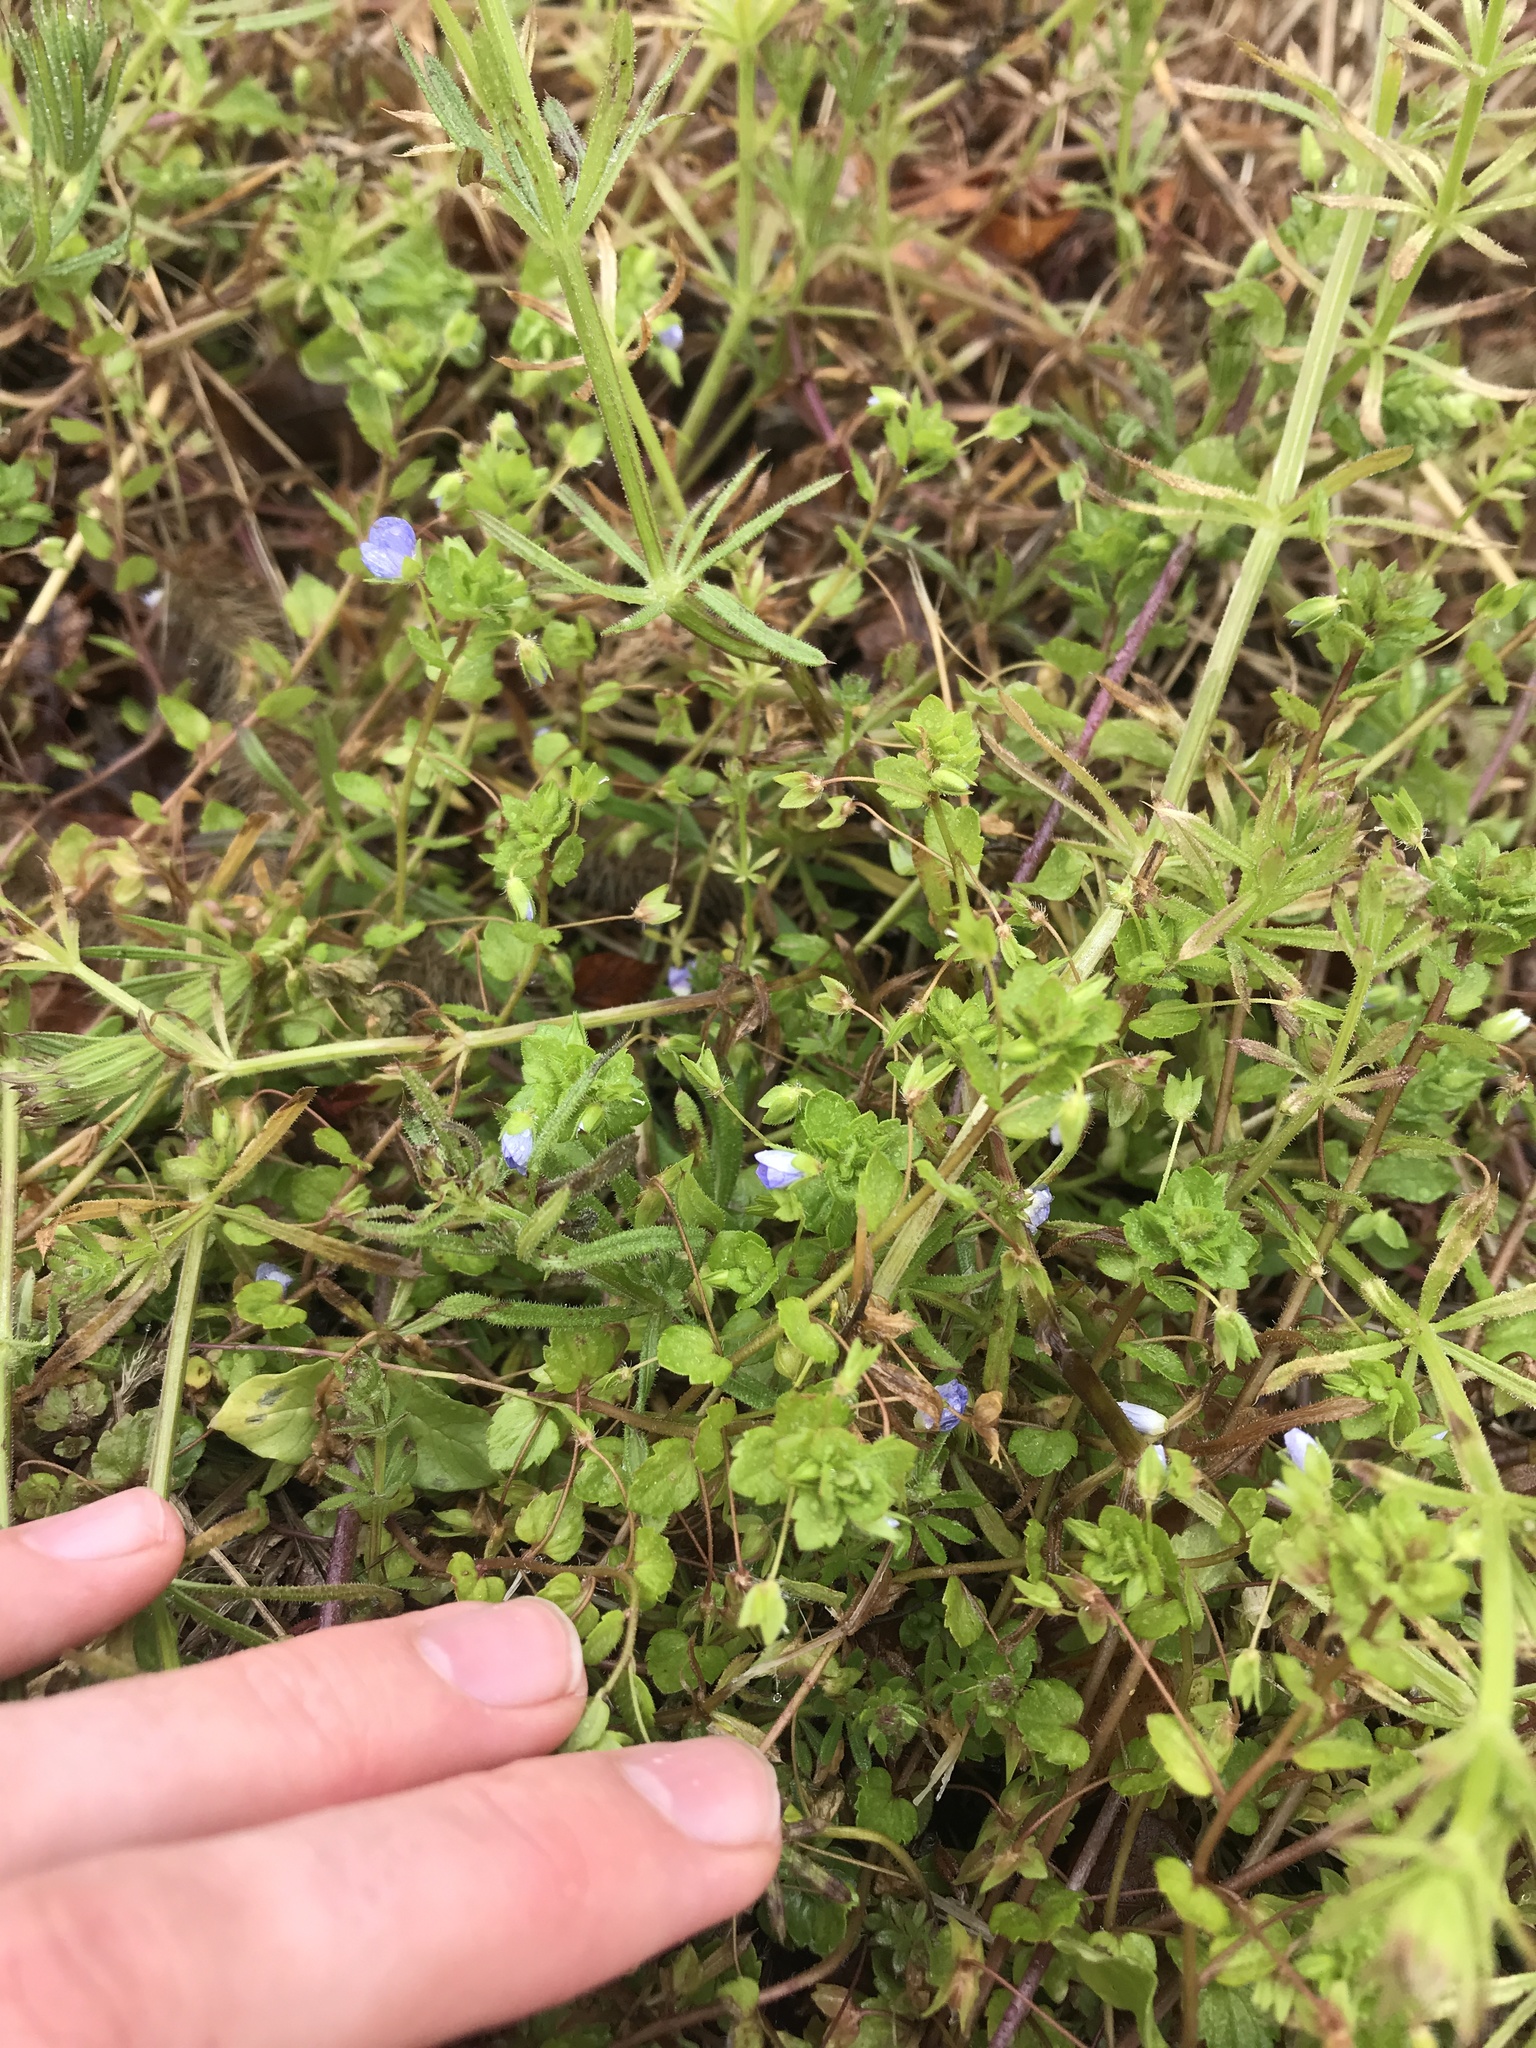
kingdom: Plantae
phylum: Tracheophyta
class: Magnoliopsida
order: Lamiales
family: Plantaginaceae
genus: Veronica
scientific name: Veronica persica
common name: Common field-speedwell
